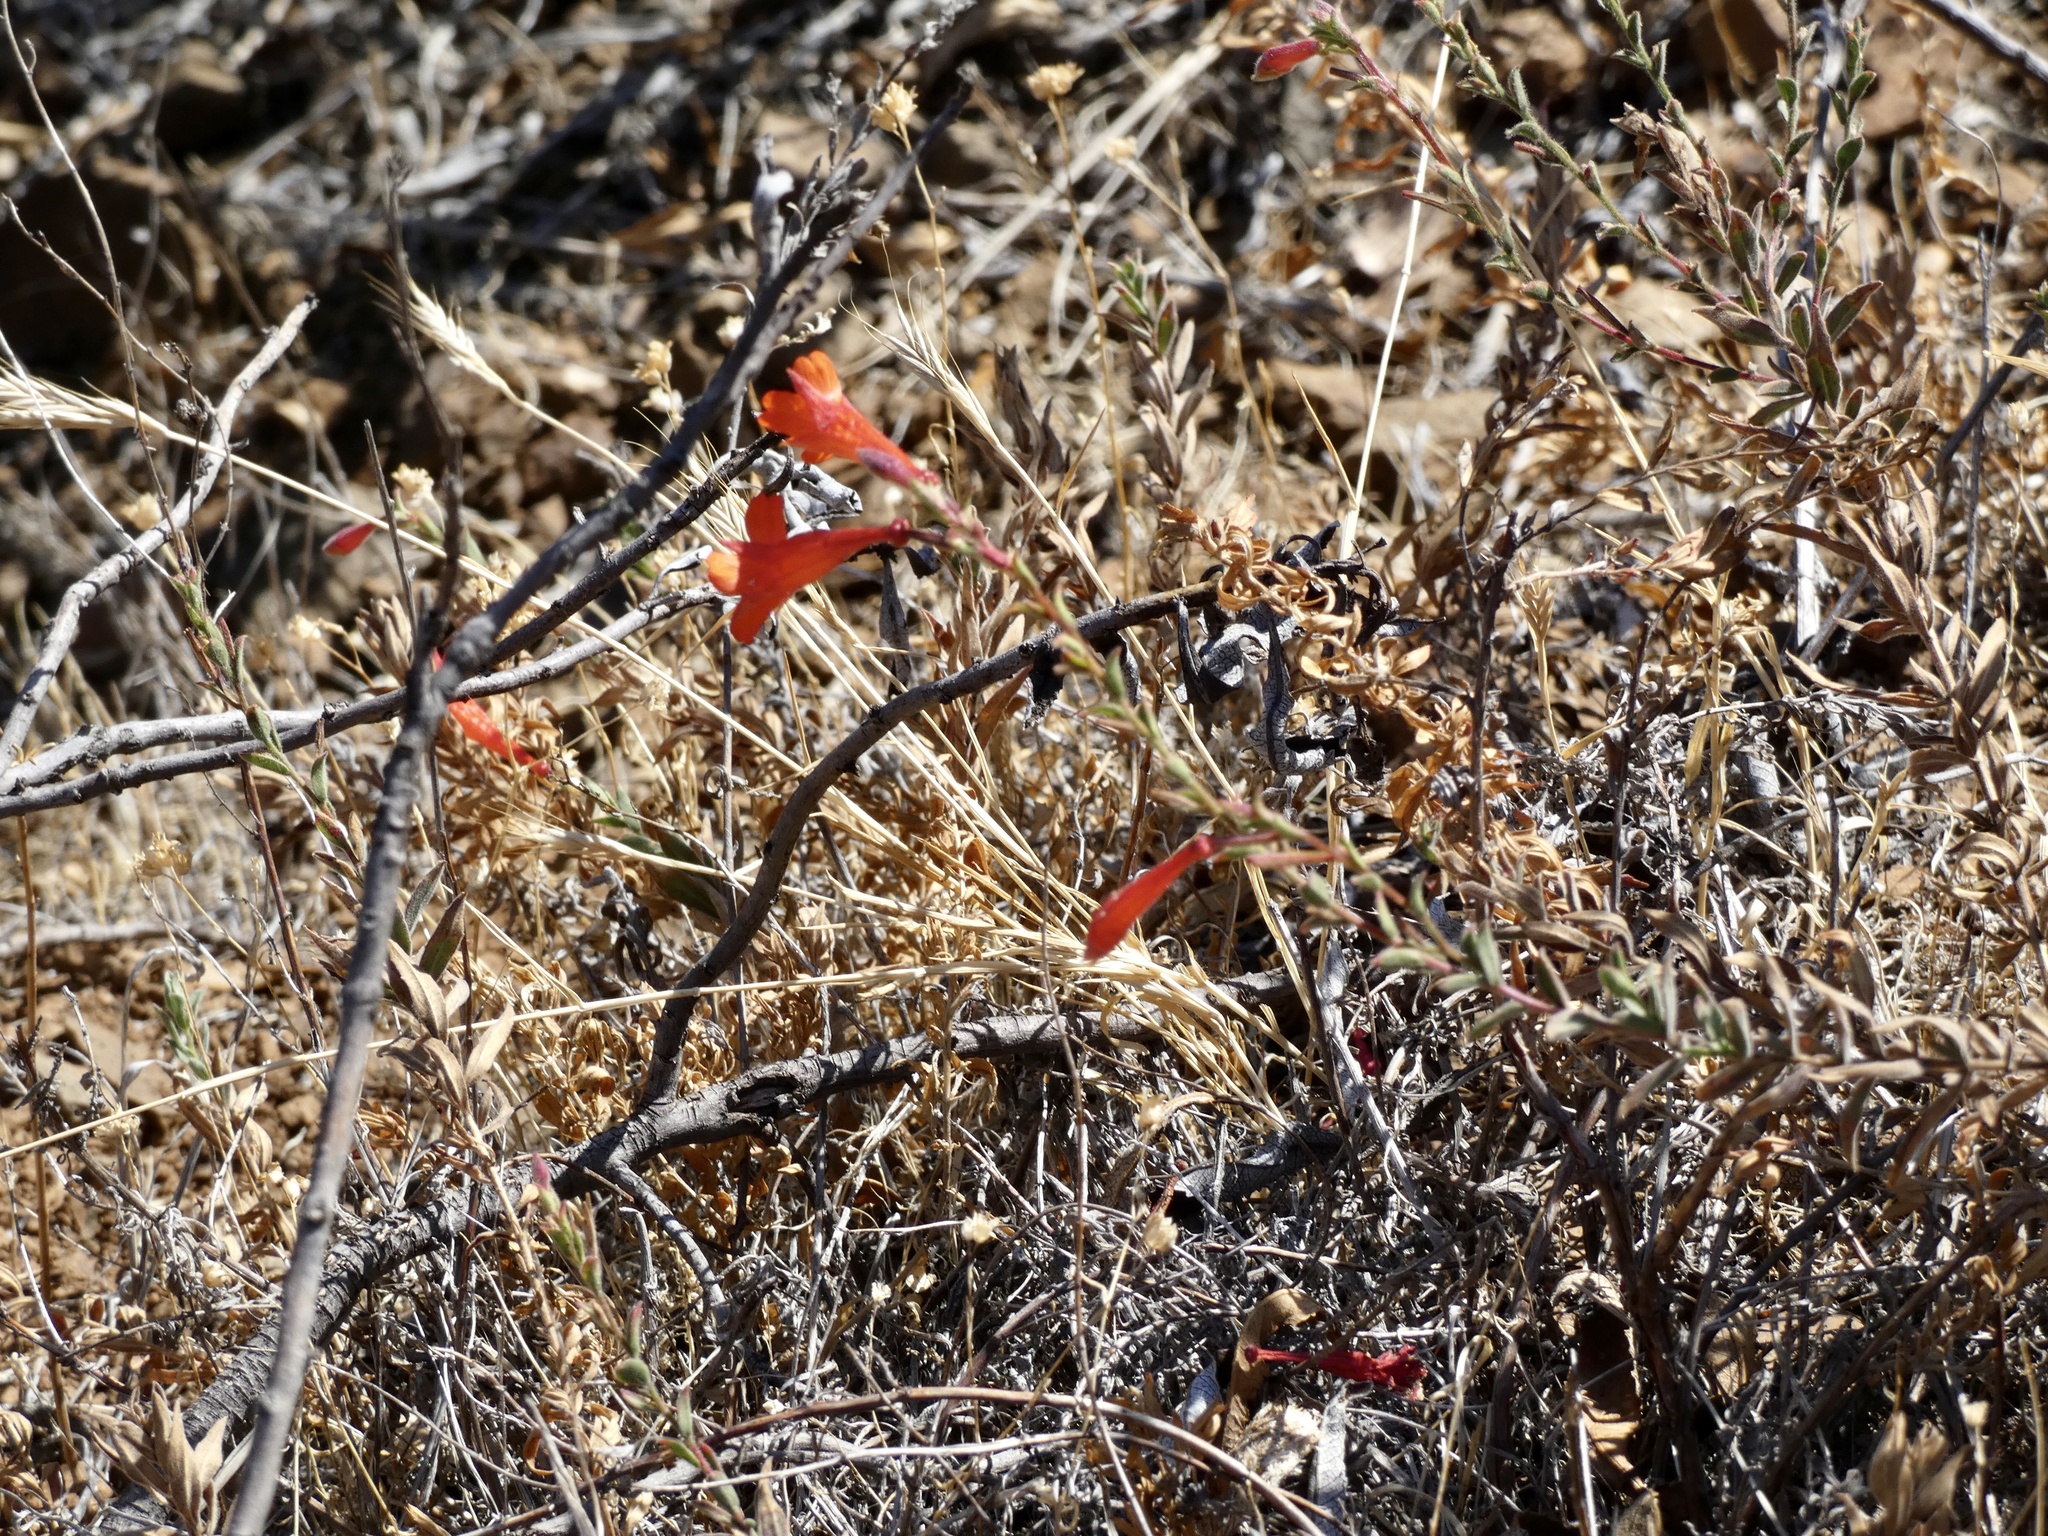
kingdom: Plantae
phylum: Tracheophyta
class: Magnoliopsida
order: Myrtales
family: Onagraceae
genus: Epilobium
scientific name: Epilobium canum
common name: California-fuchsia
